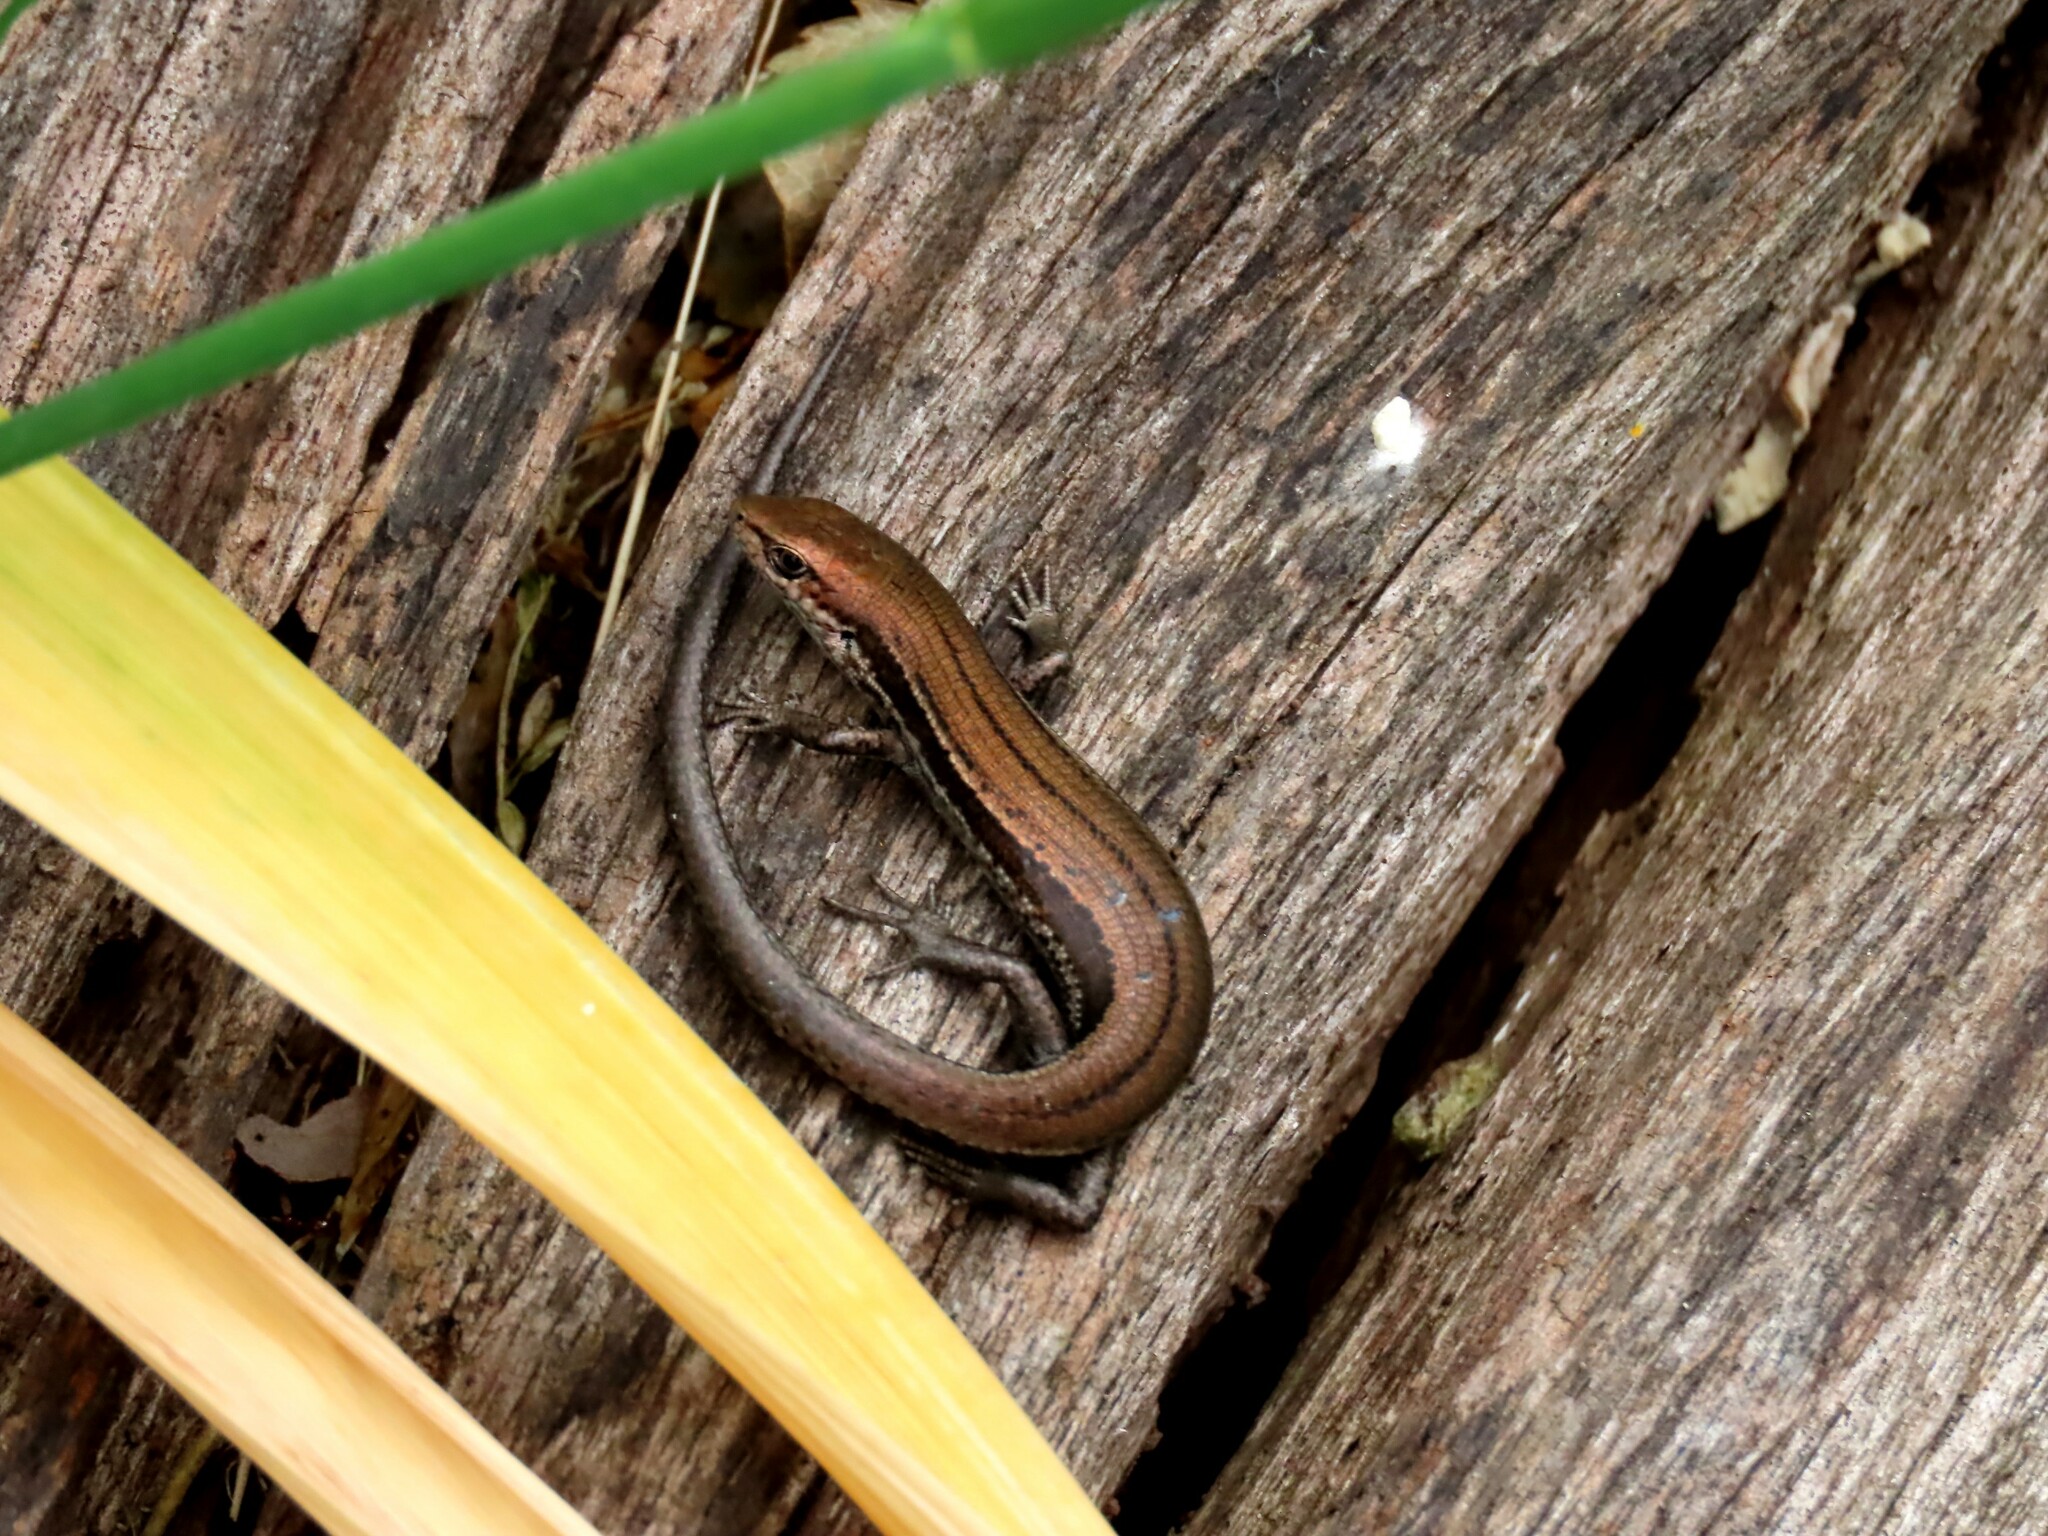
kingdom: Animalia
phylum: Chordata
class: Squamata
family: Scincidae
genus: Pseudemoia
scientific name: Pseudemoia entrecasteauxii
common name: Entrecasteaux's skink
